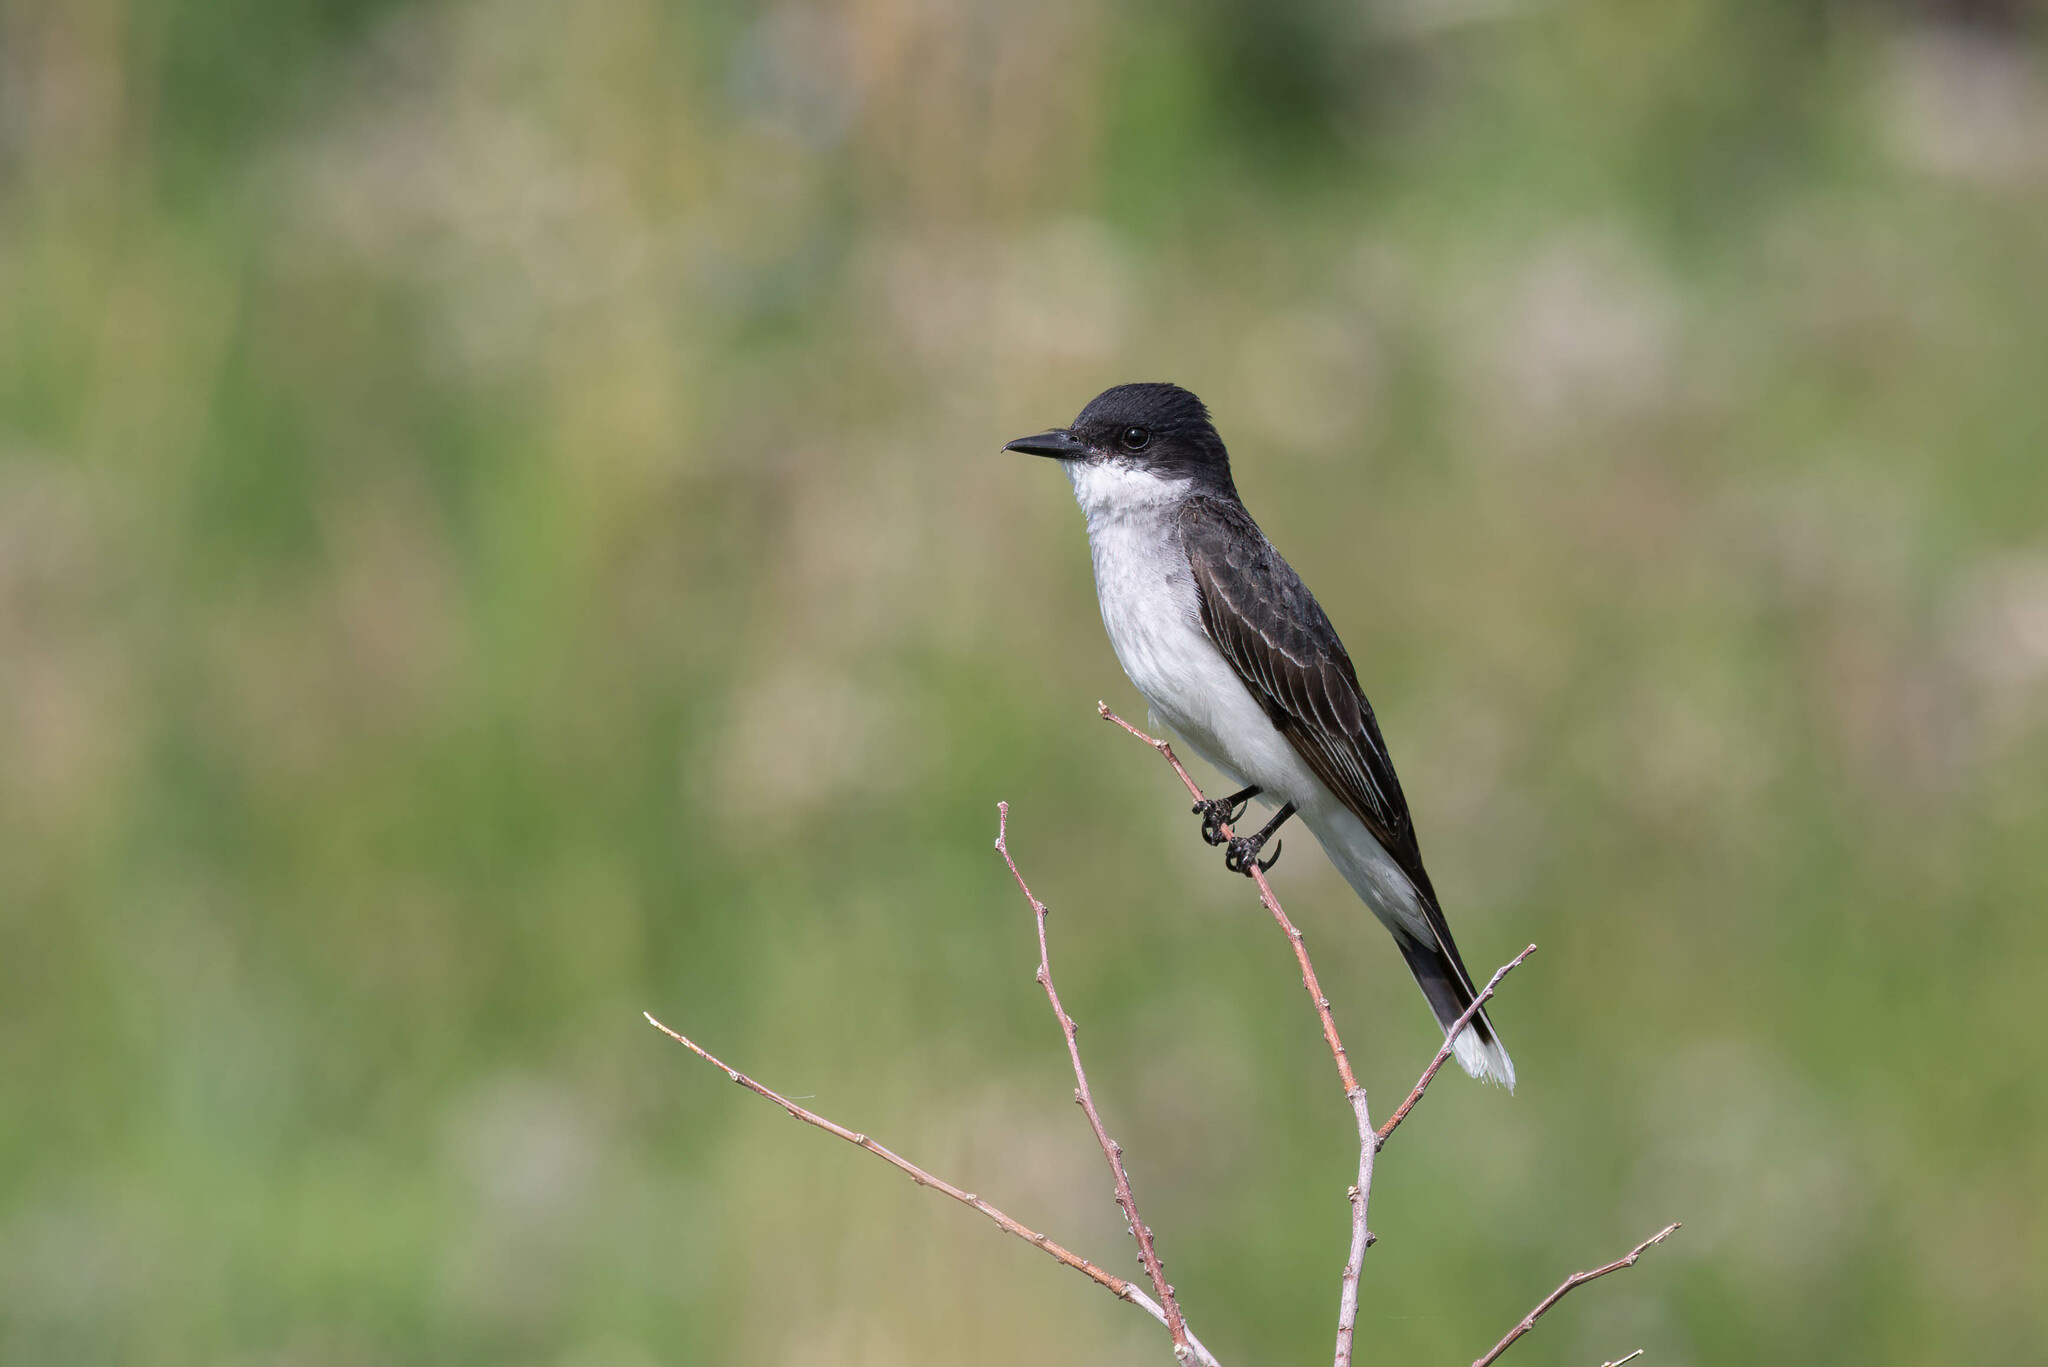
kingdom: Animalia
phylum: Chordata
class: Aves
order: Passeriformes
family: Tyrannidae
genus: Tyrannus
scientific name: Tyrannus tyrannus
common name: Eastern kingbird
